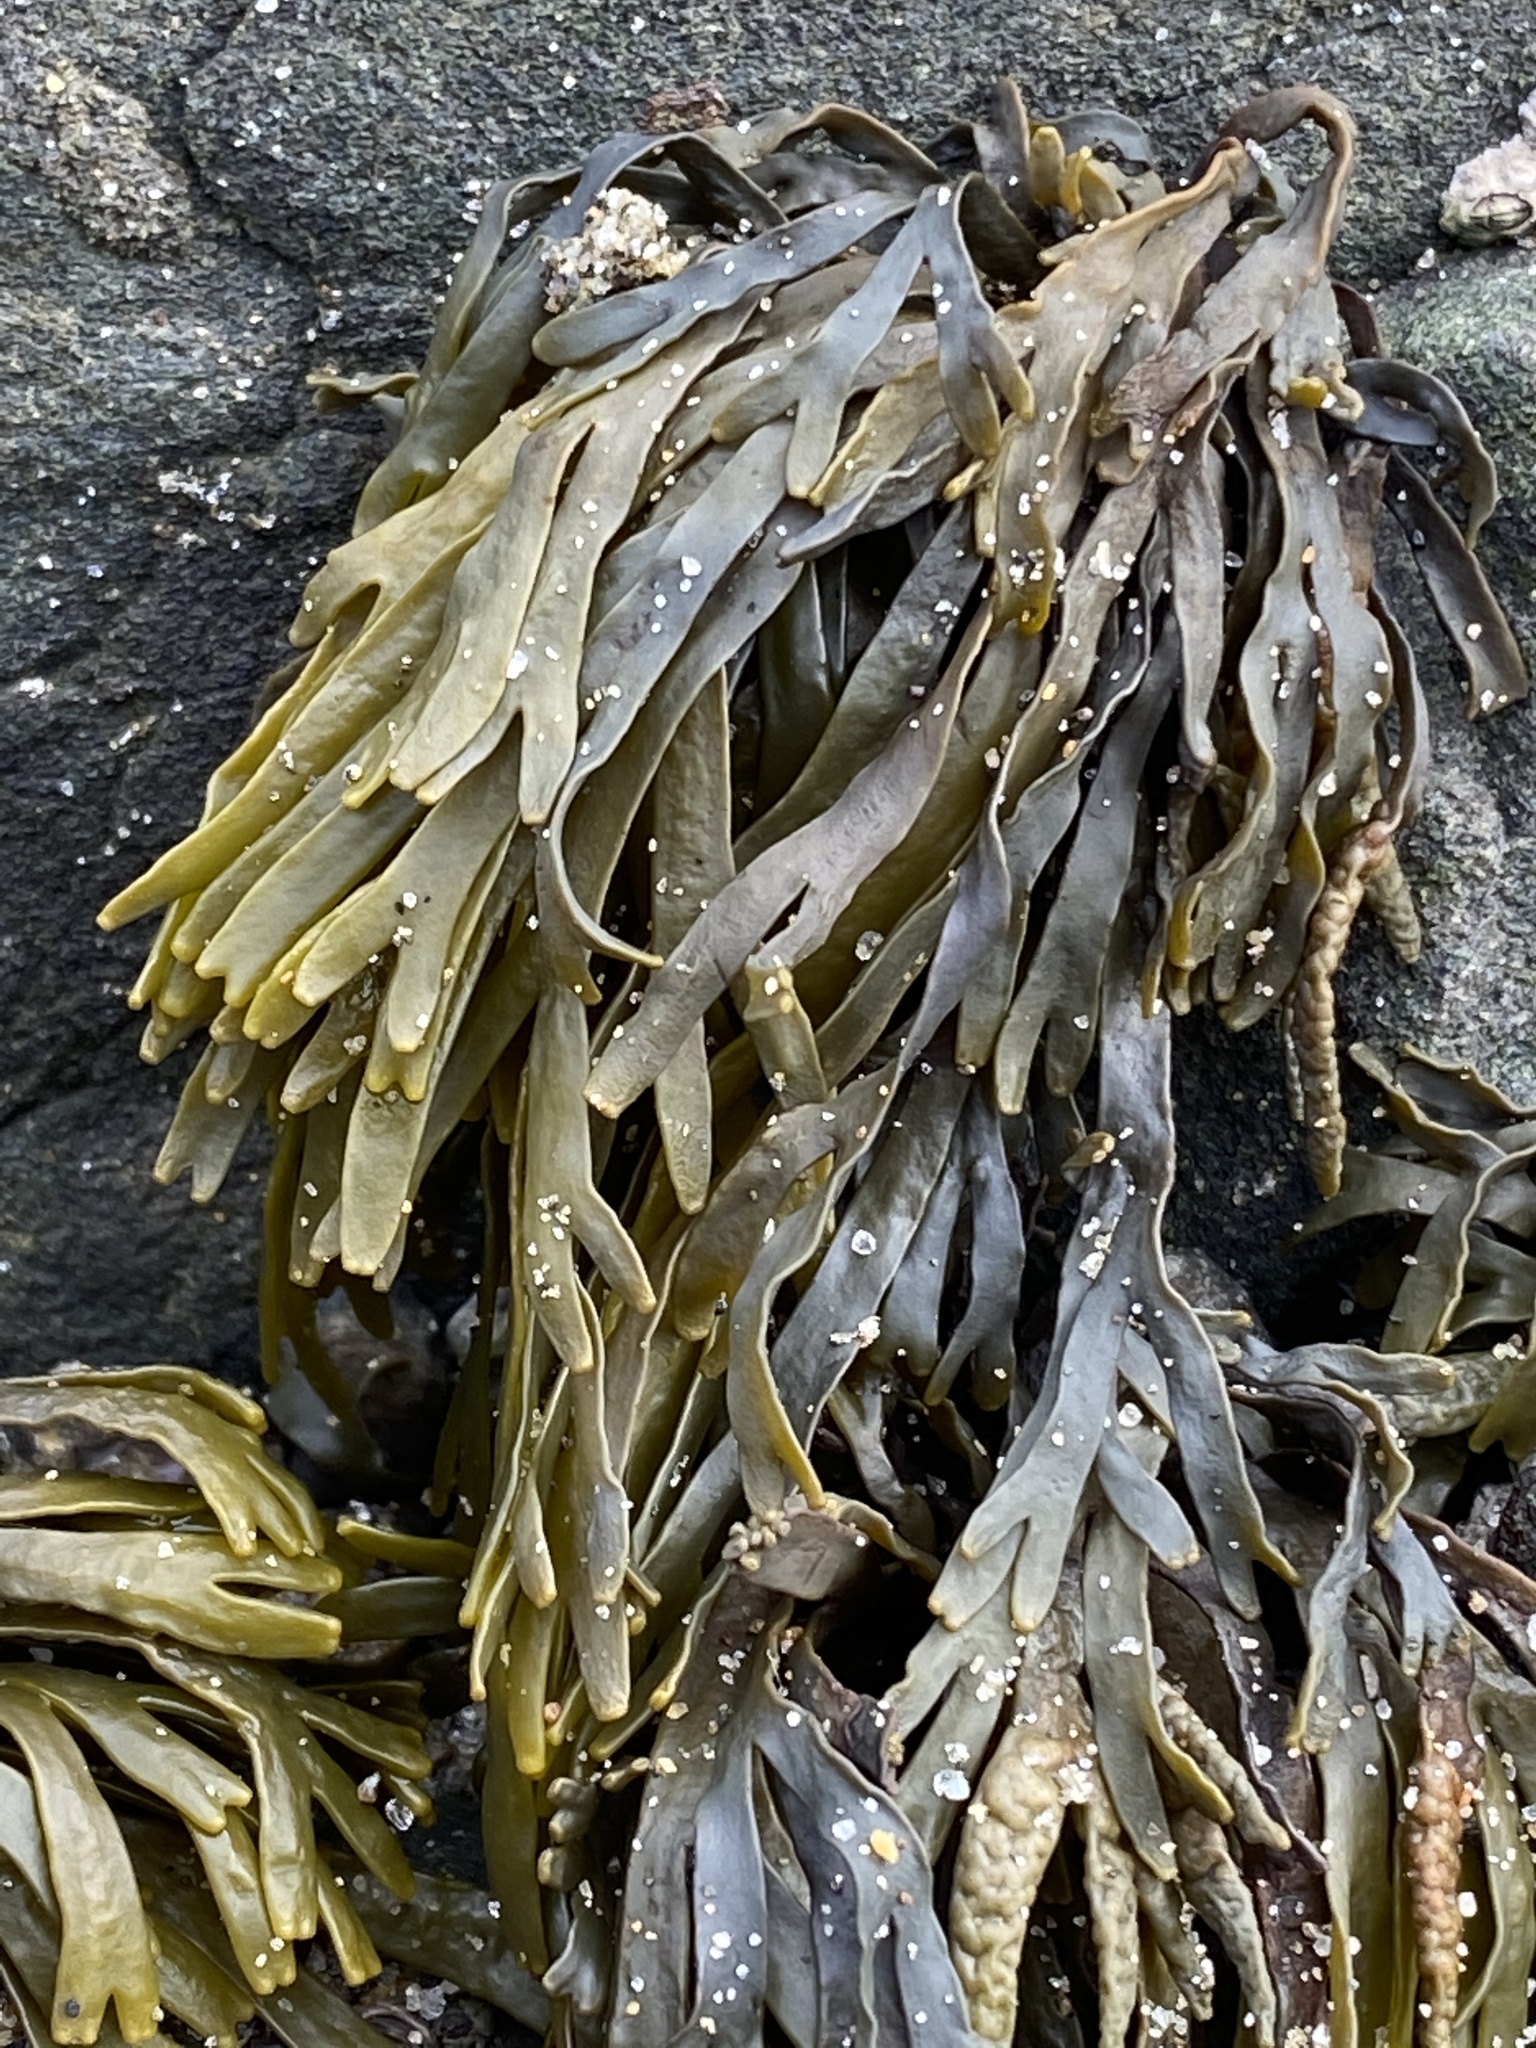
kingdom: Chromista
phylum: Ochrophyta
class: Phaeophyceae
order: Fucales
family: Fucaceae
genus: Pelvetiopsis
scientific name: Pelvetiopsis limitata
